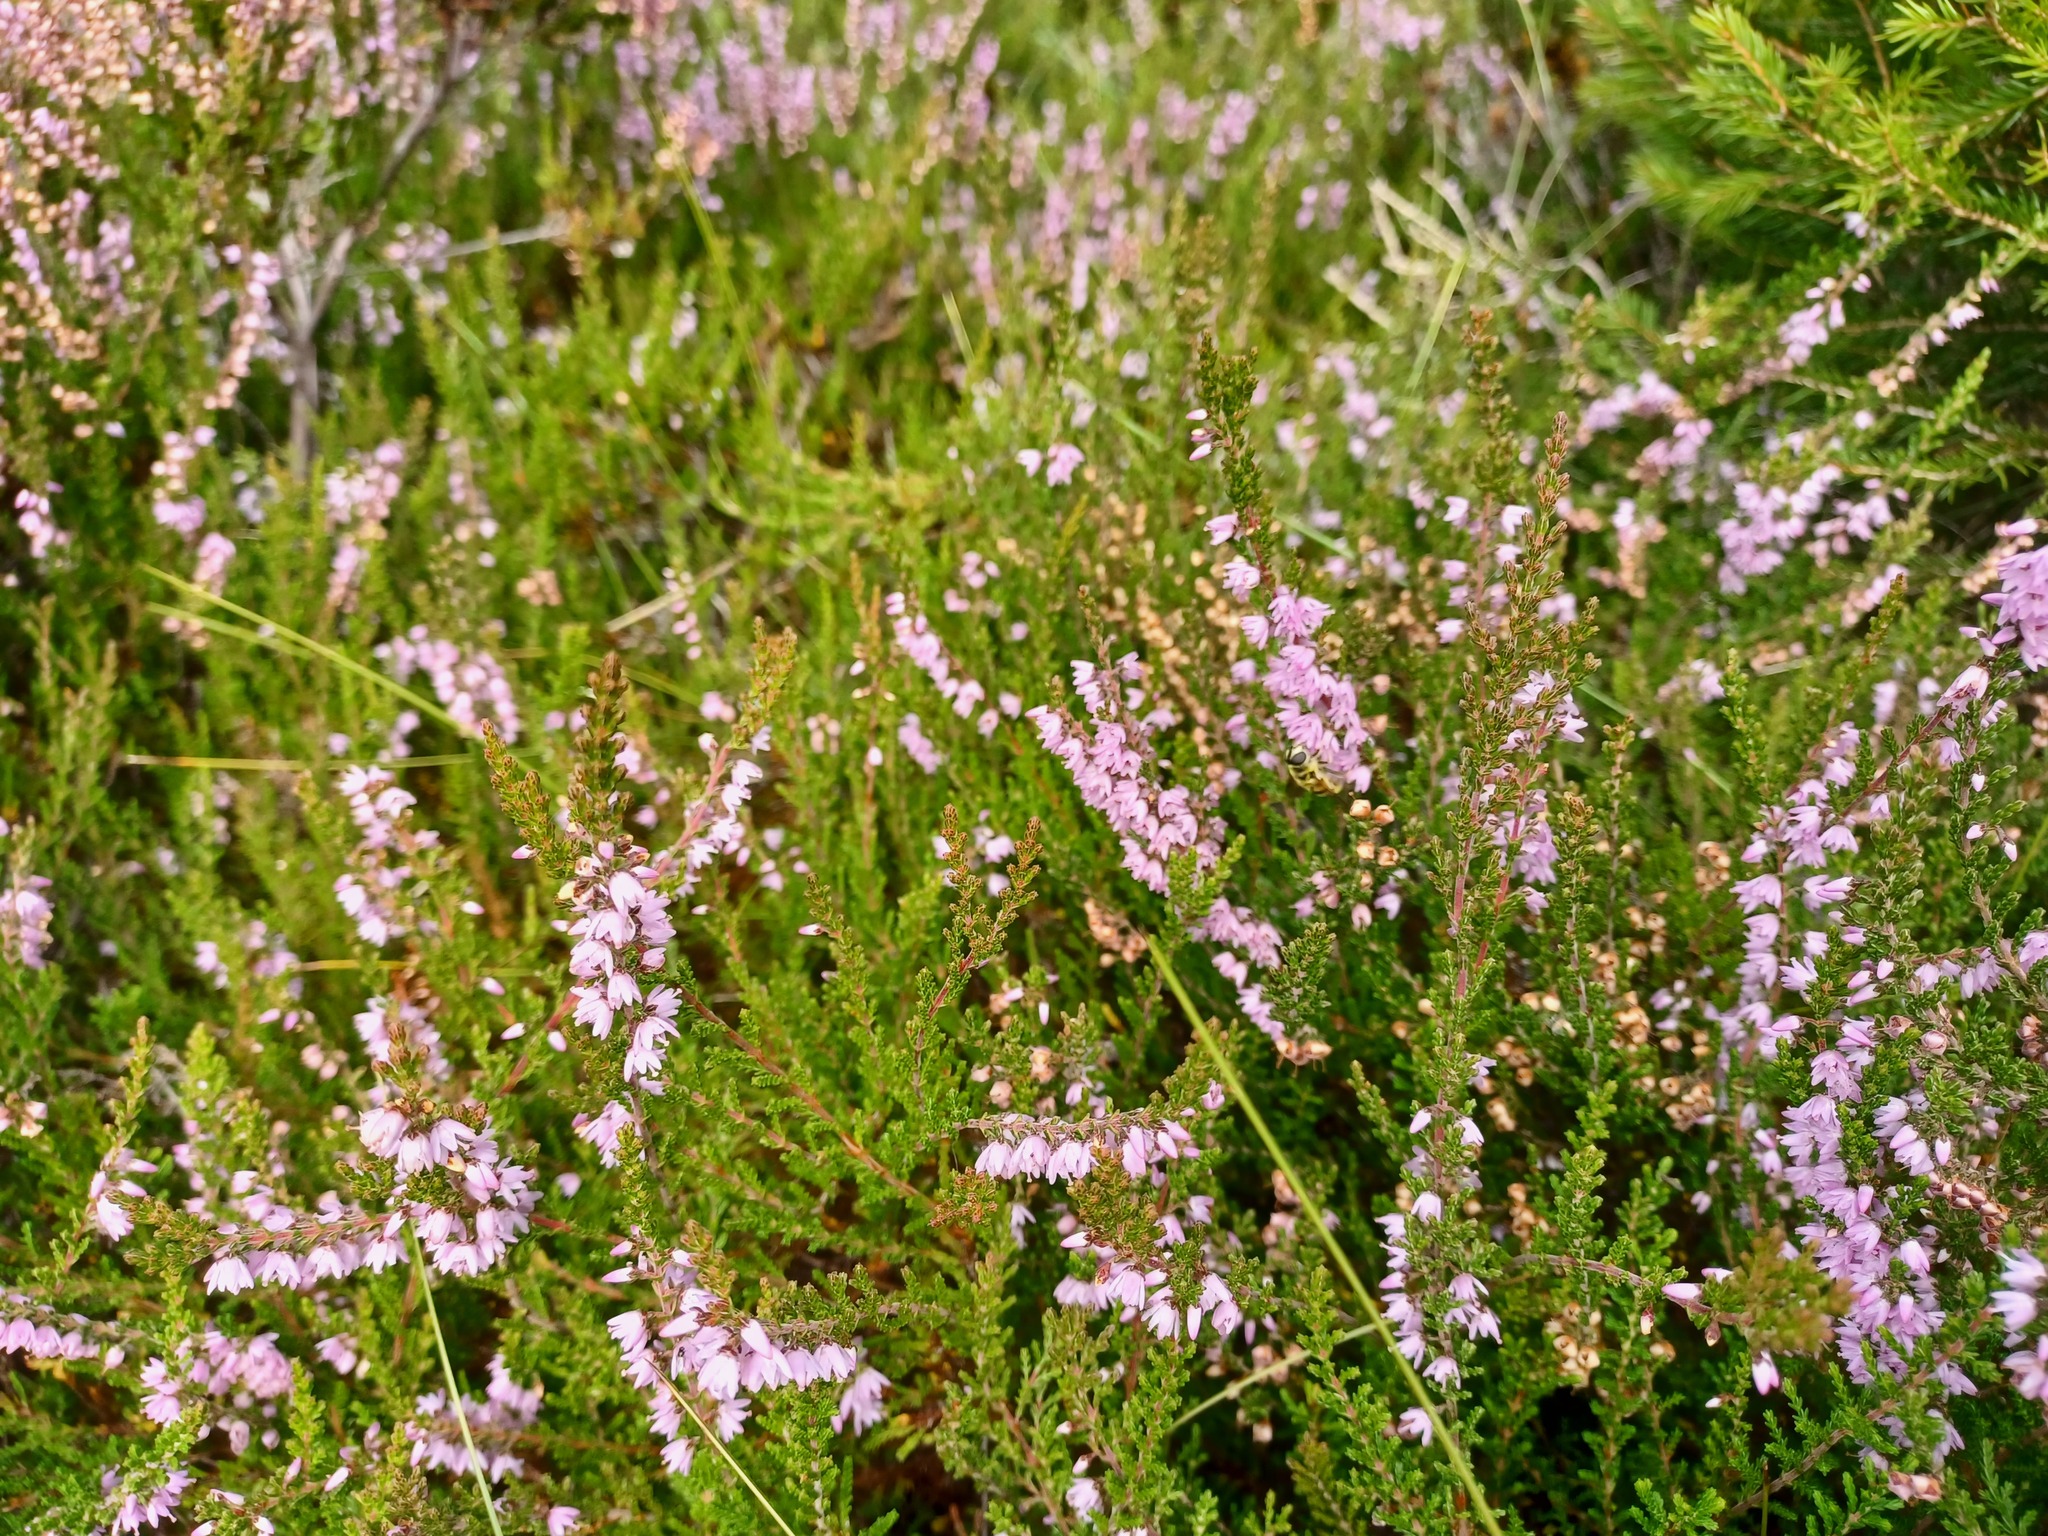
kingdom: Plantae
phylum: Tracheophyta
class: Magnoliopsida
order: Ericales
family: Ericaceae
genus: Calluna
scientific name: Calluna vulgaris
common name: Heather
